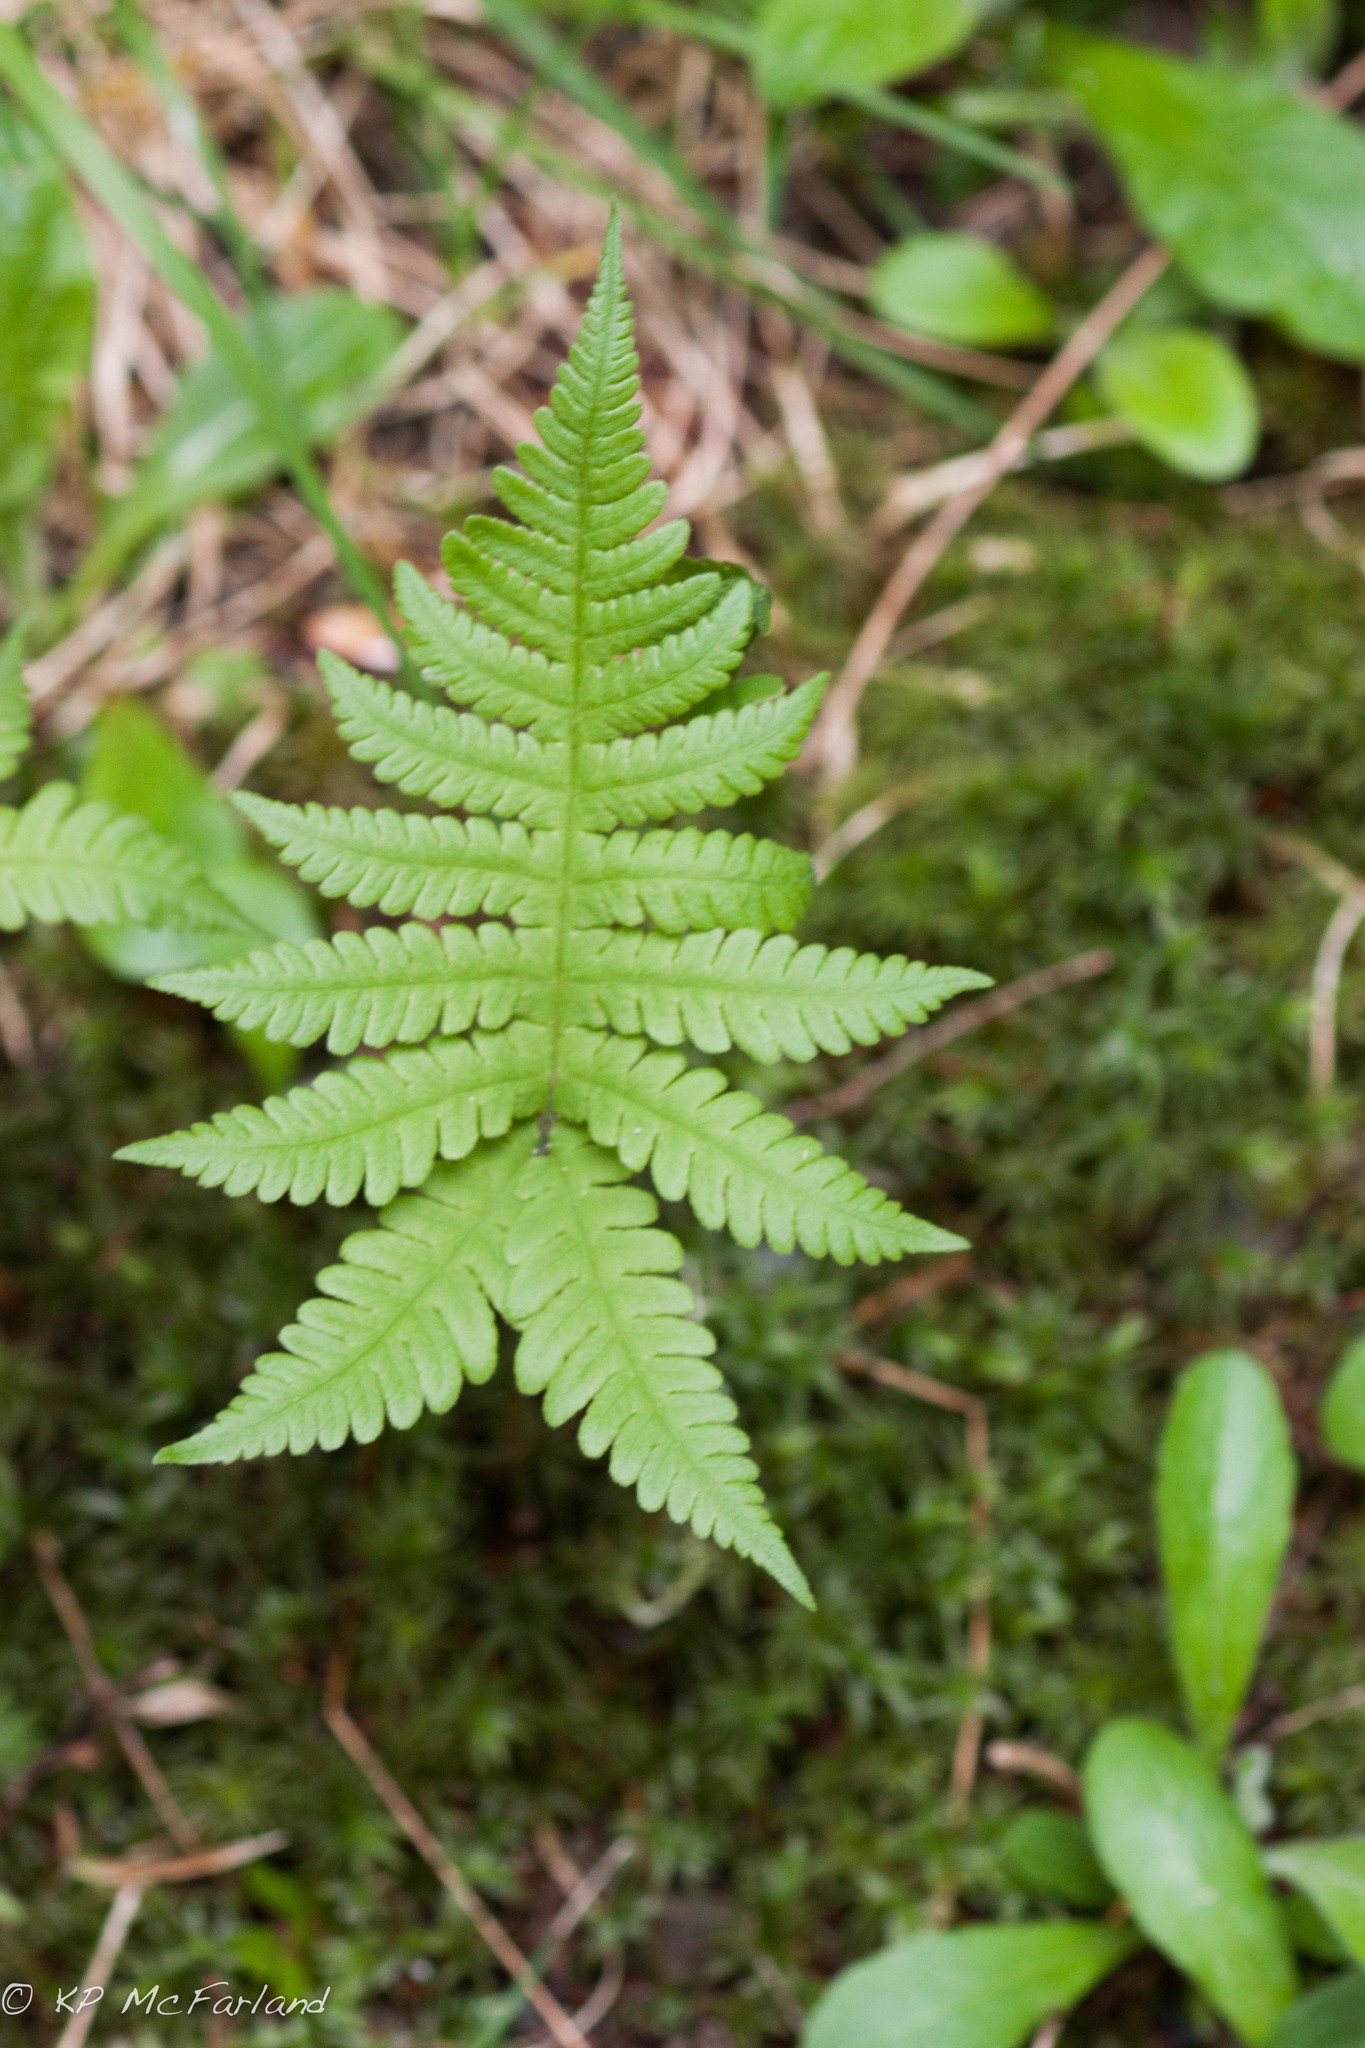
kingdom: Plantae
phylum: Tracheophyta
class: Polypodiopsida
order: Polypodiales
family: Thelypteridaceae
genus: Phegopteris
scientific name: Phegopteris connectilis
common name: Beech fern
